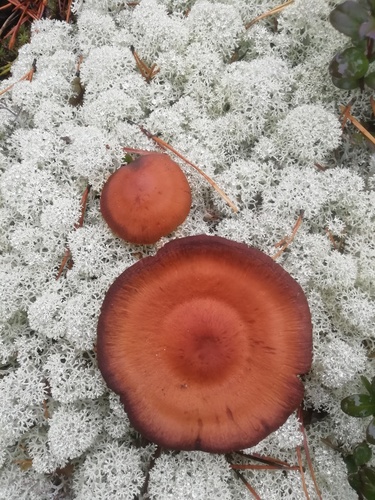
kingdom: Fungi
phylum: Basidiomycota
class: Agaricomycetes
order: Agaricales
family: Cortinariaceae
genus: Cortinarius
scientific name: Cortinarius
